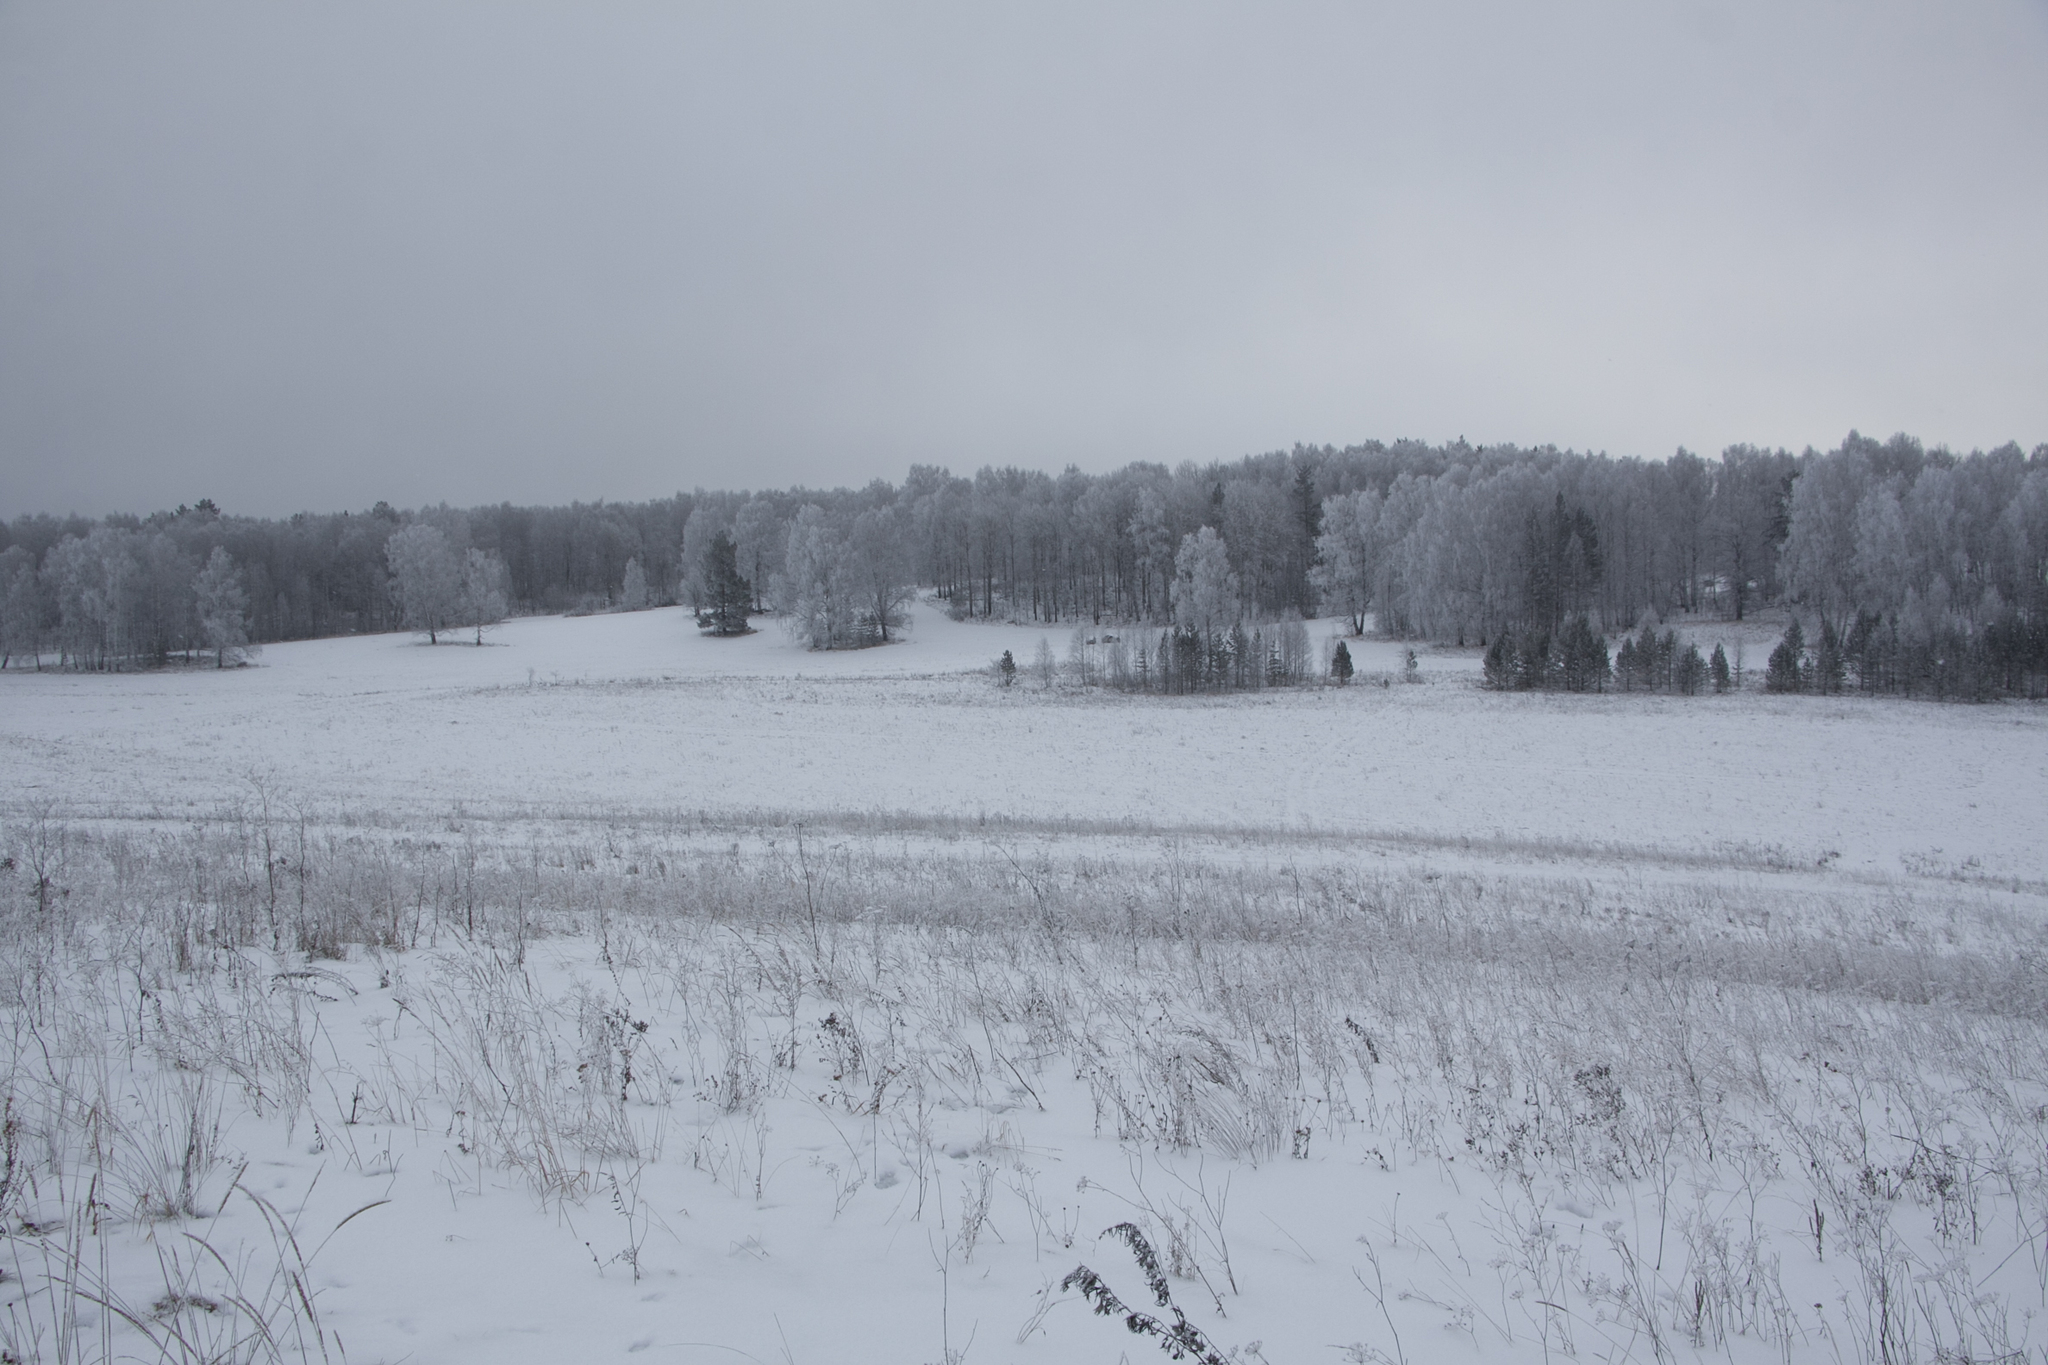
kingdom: Plantae
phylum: Tracheophyta
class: Magnoliopsida
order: Fagales
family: Betulaceae
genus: Betula
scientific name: Betula pendula
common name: Silver birch
